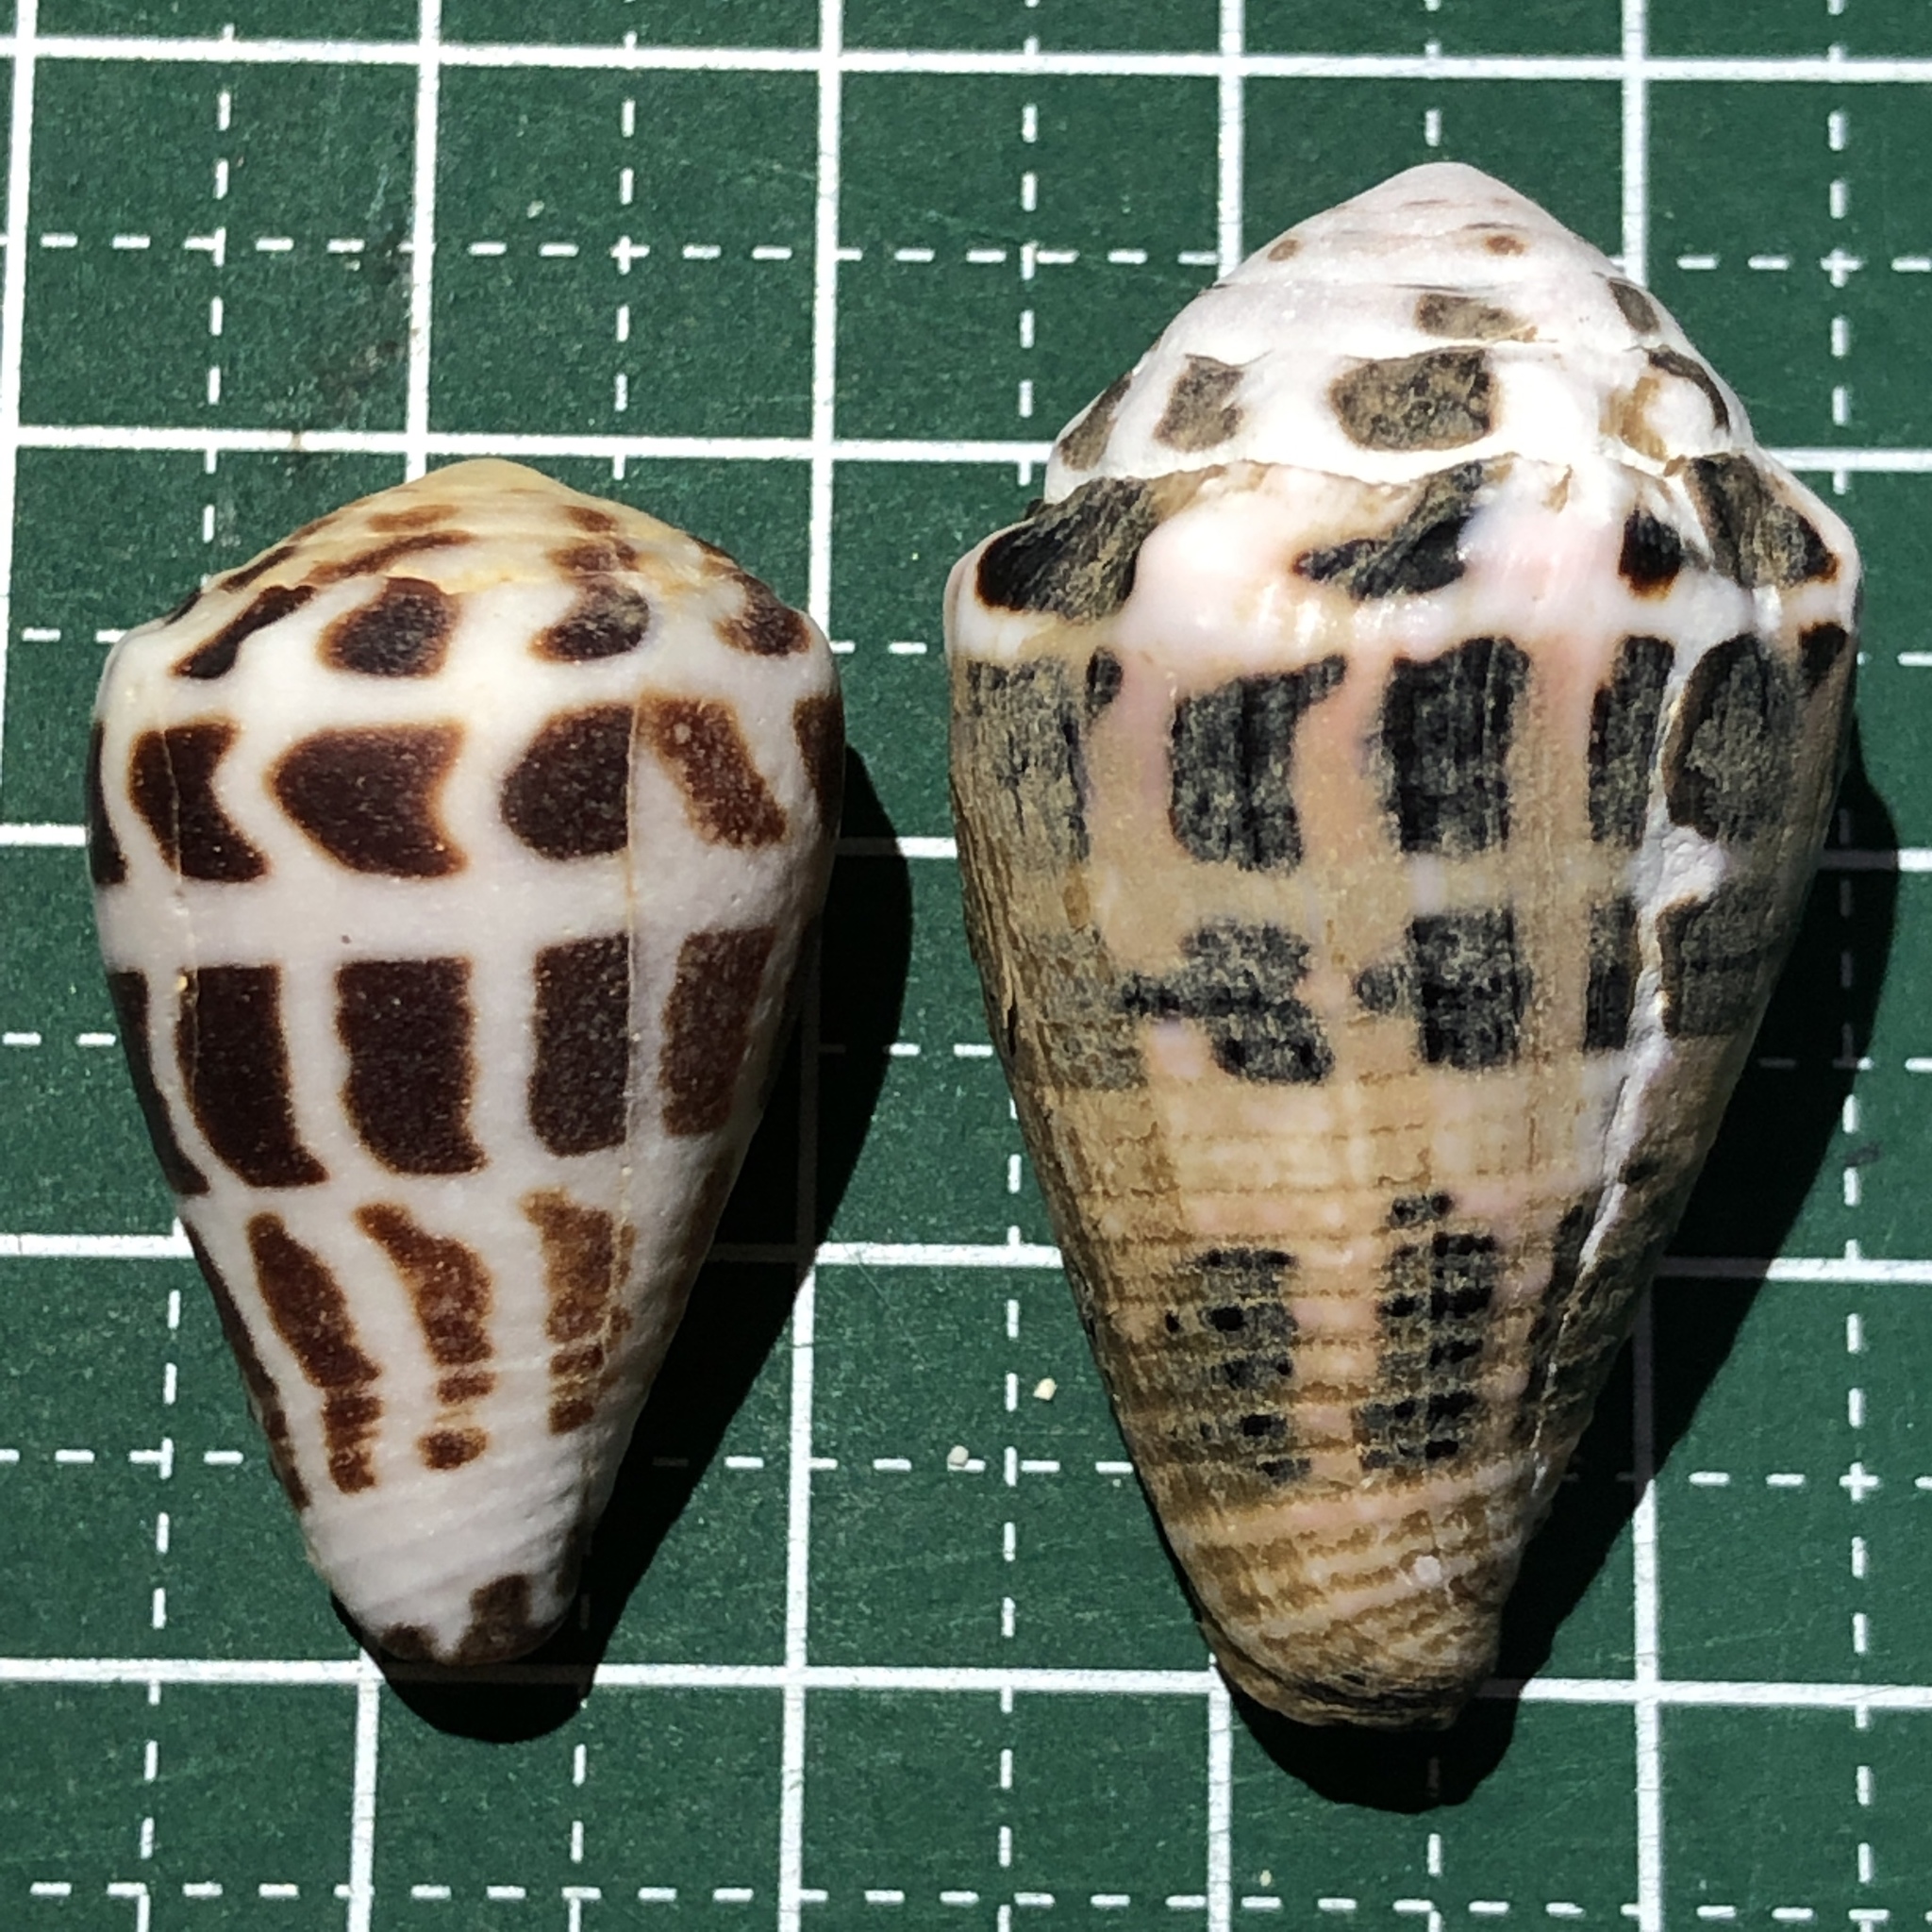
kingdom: Animalia
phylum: Mollusca
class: Gastropoda
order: Neogastropoda
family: Conidae
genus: Conus
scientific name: Conus ebraeus
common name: Hebrew cone
